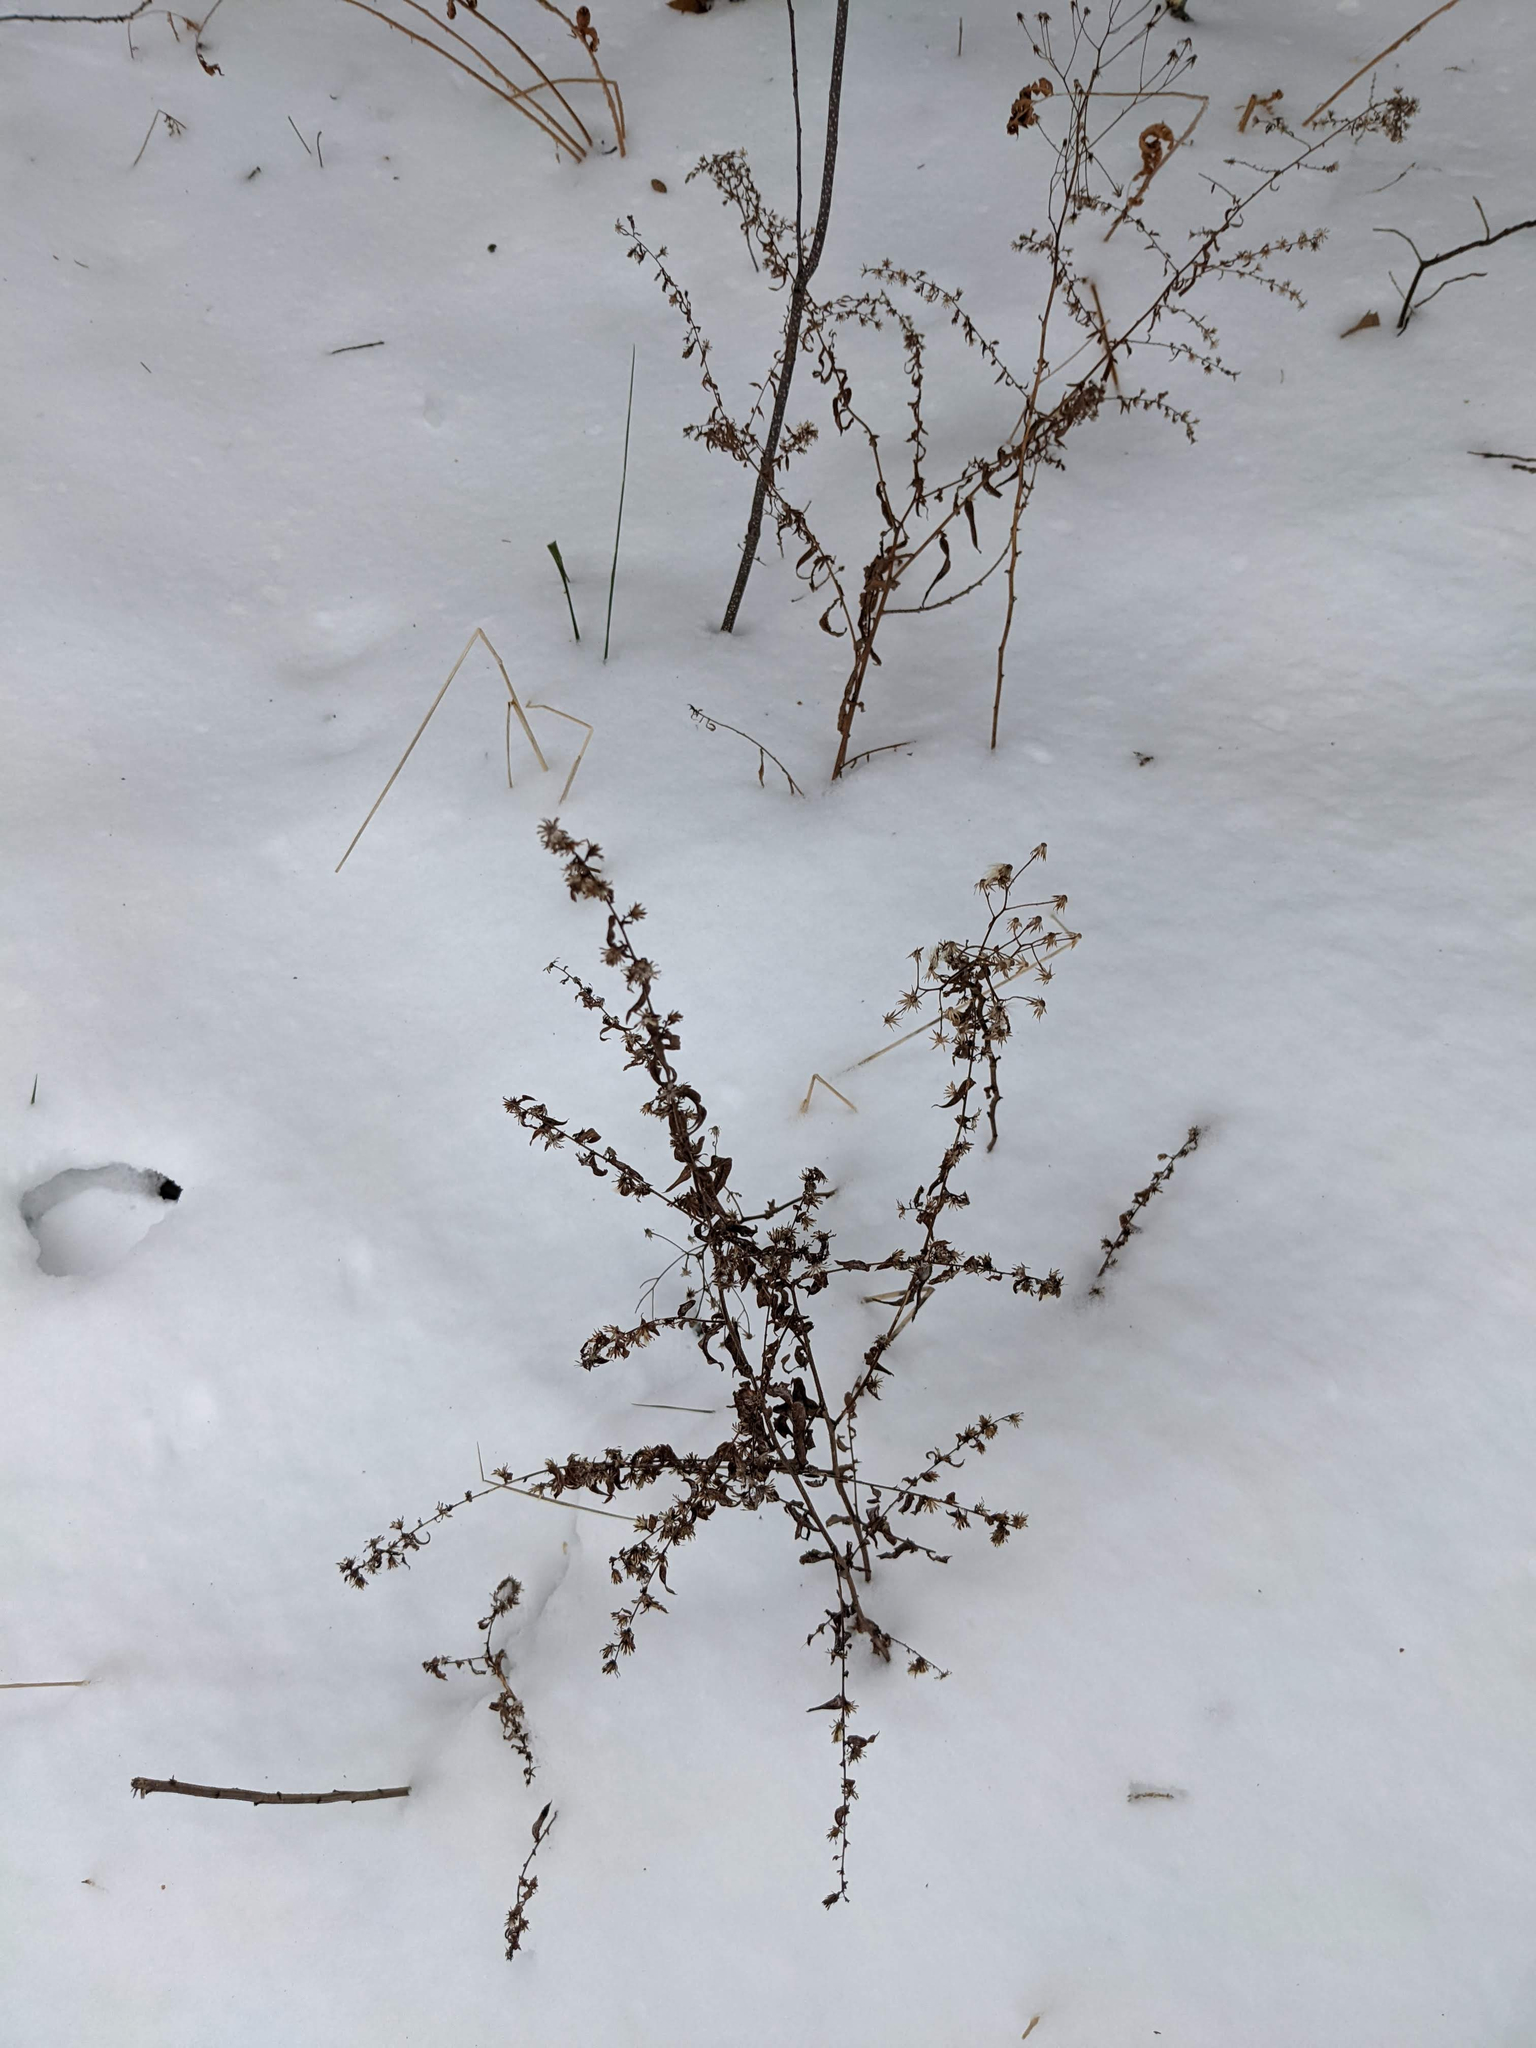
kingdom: Plantae
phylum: Tracheophyta
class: Magnoliopsida
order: Asterales
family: Asteraceae
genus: Symphyotrichum
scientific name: Symphyotrichum lateriflorum
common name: Calico aster
